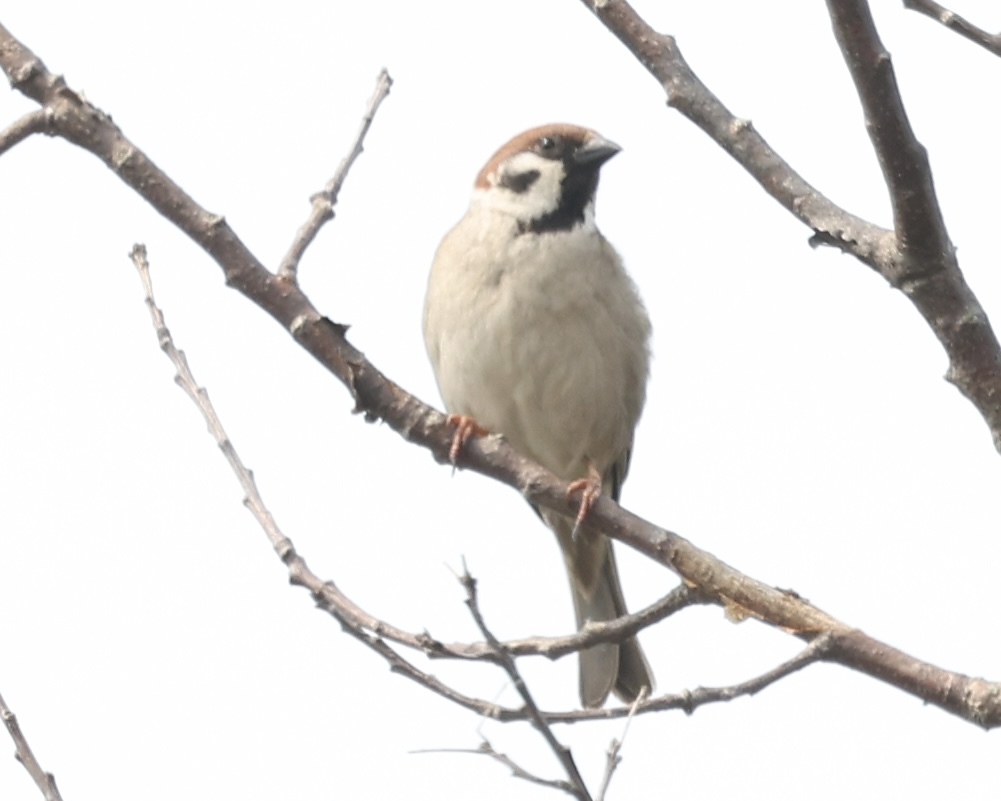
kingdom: Animalia
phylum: Chordata
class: Aves
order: Passeriformes
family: Passeridae
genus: Passer
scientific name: Passer montanus
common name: Eurasian tree sparrow
